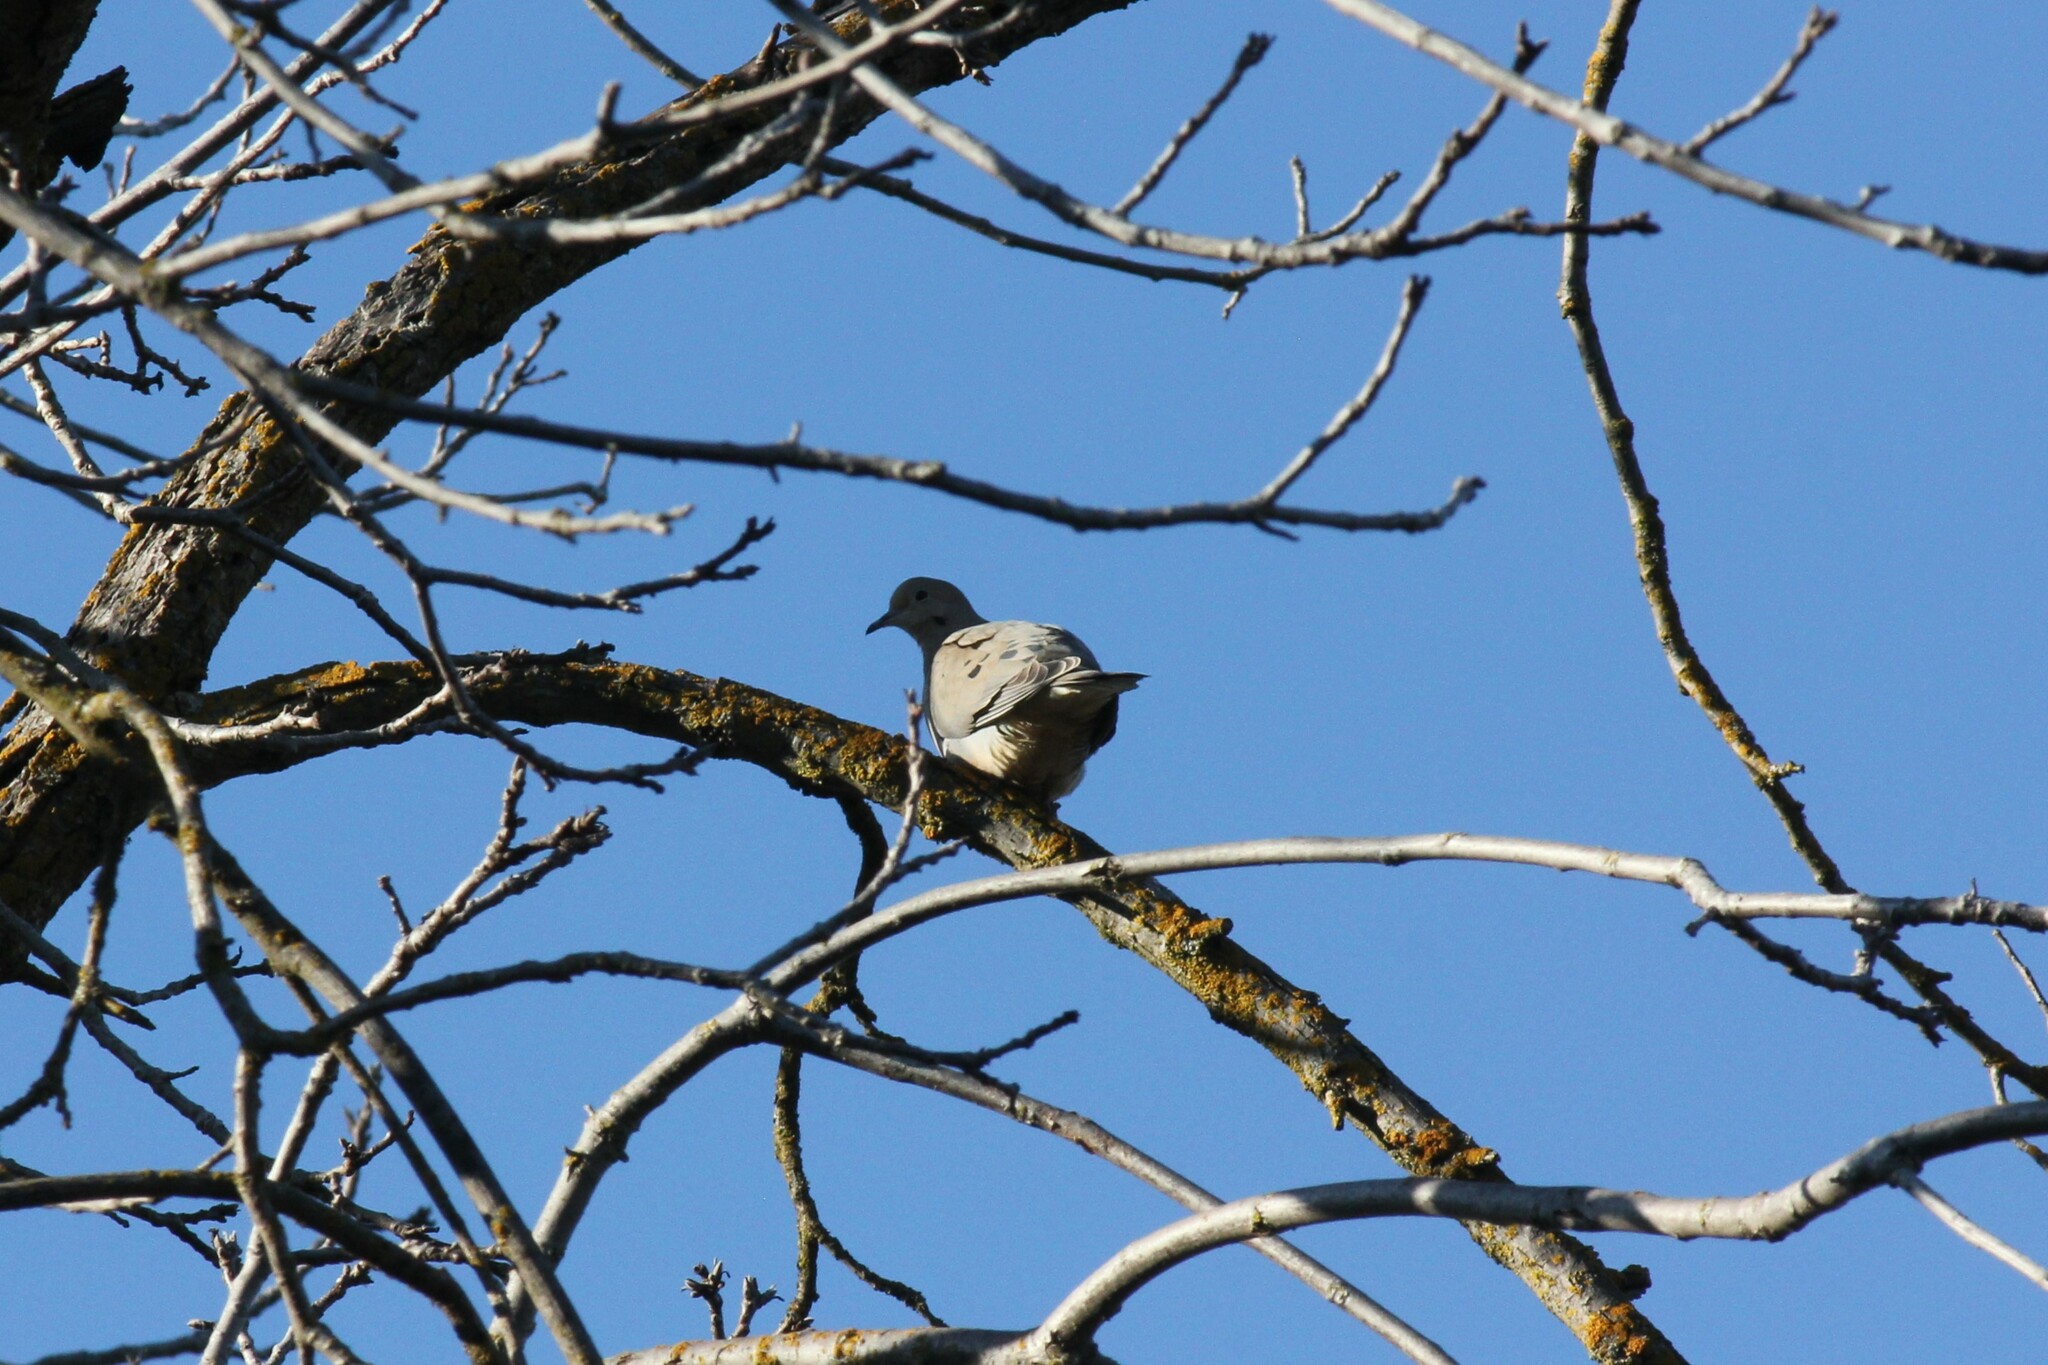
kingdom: Animalia
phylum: Chordata
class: Aves
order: Columbiformes
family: Columbidae
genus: Zenaida
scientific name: Zenaida macroura
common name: Mourning dove
